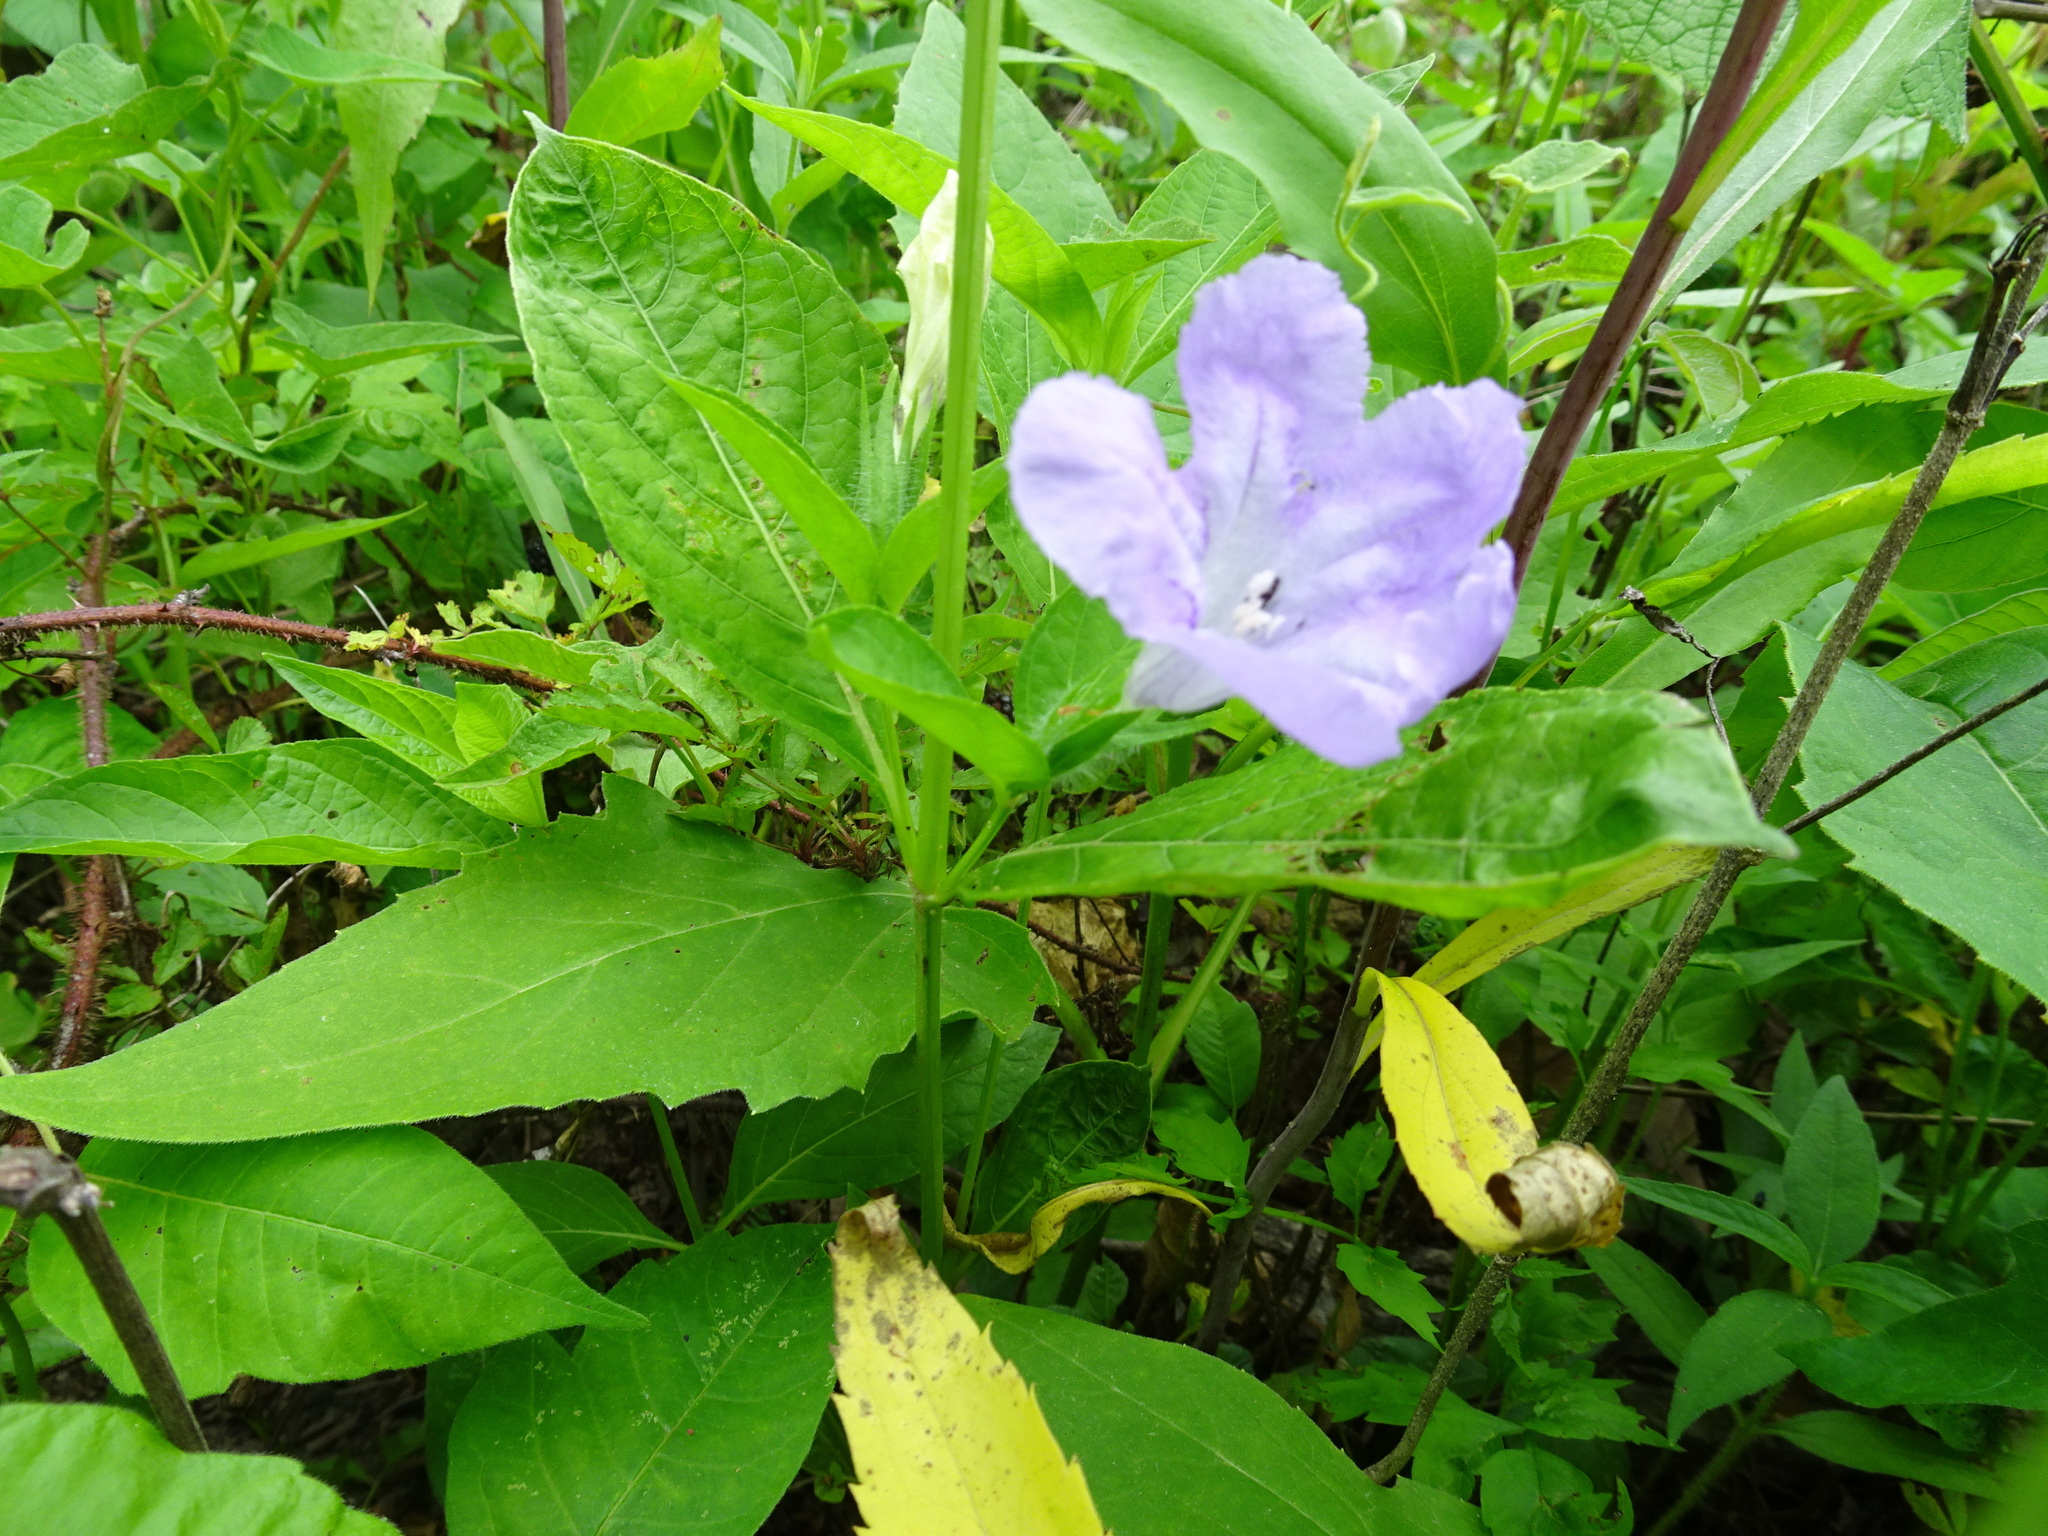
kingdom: Plantae
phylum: Tracheophyta
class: Magnoliopsida
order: Lamiales
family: Acanthaceae
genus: Ruellia
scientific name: Ruellia strepens
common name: Limestone wild petunia
